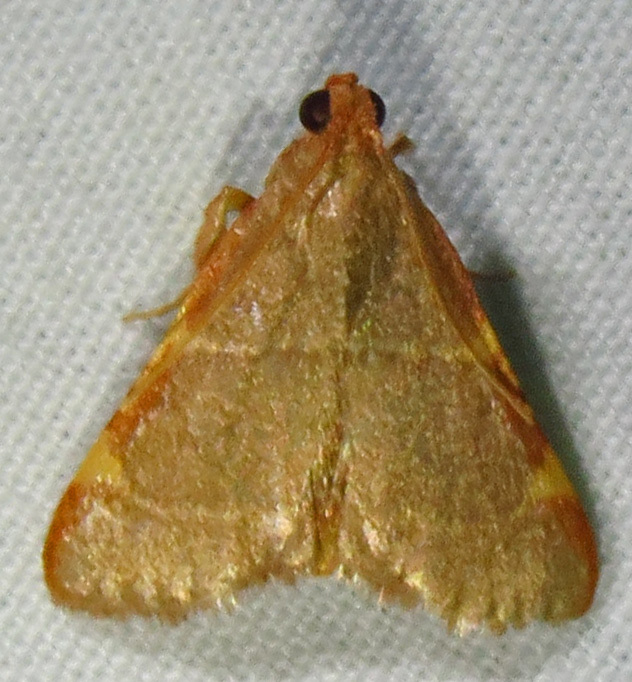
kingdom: Animalia
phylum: Arthropoda
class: Insecta
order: Lepidoptera
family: Pyralidae
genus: Hypsopygia
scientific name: Hypsopygia binodulalis
